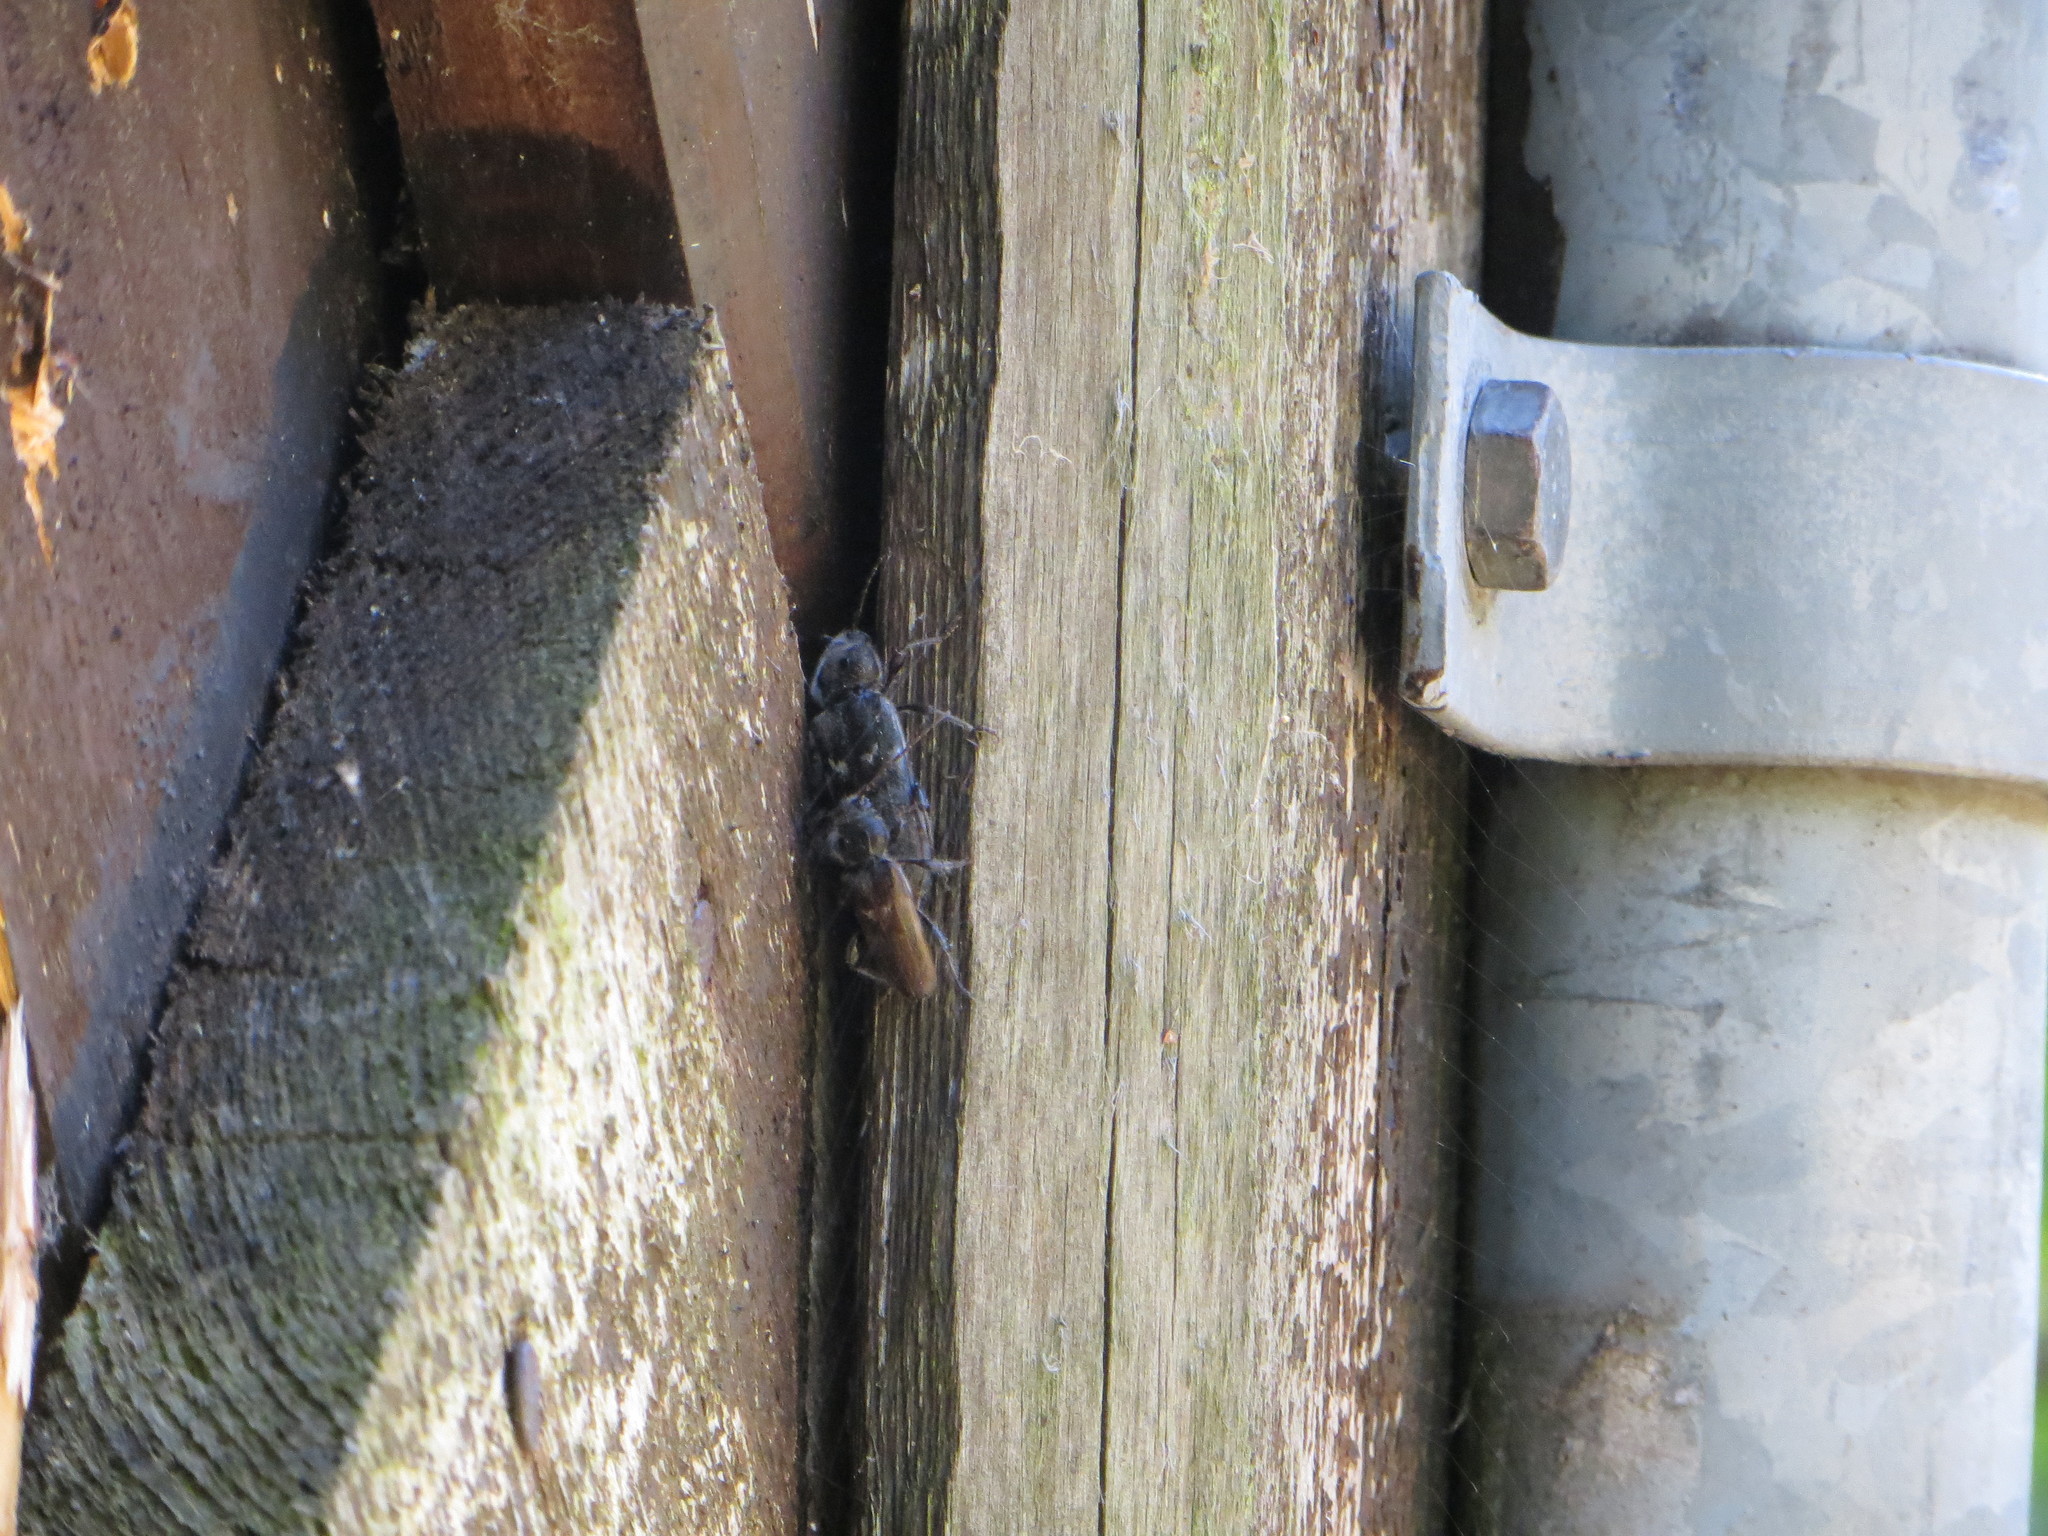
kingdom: Animalia
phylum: Arthropoda
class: Insecta
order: Coleoptera
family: Cerambycidae
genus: Hylotrupes
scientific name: Hylotrupes bajulus
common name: Old house borer
